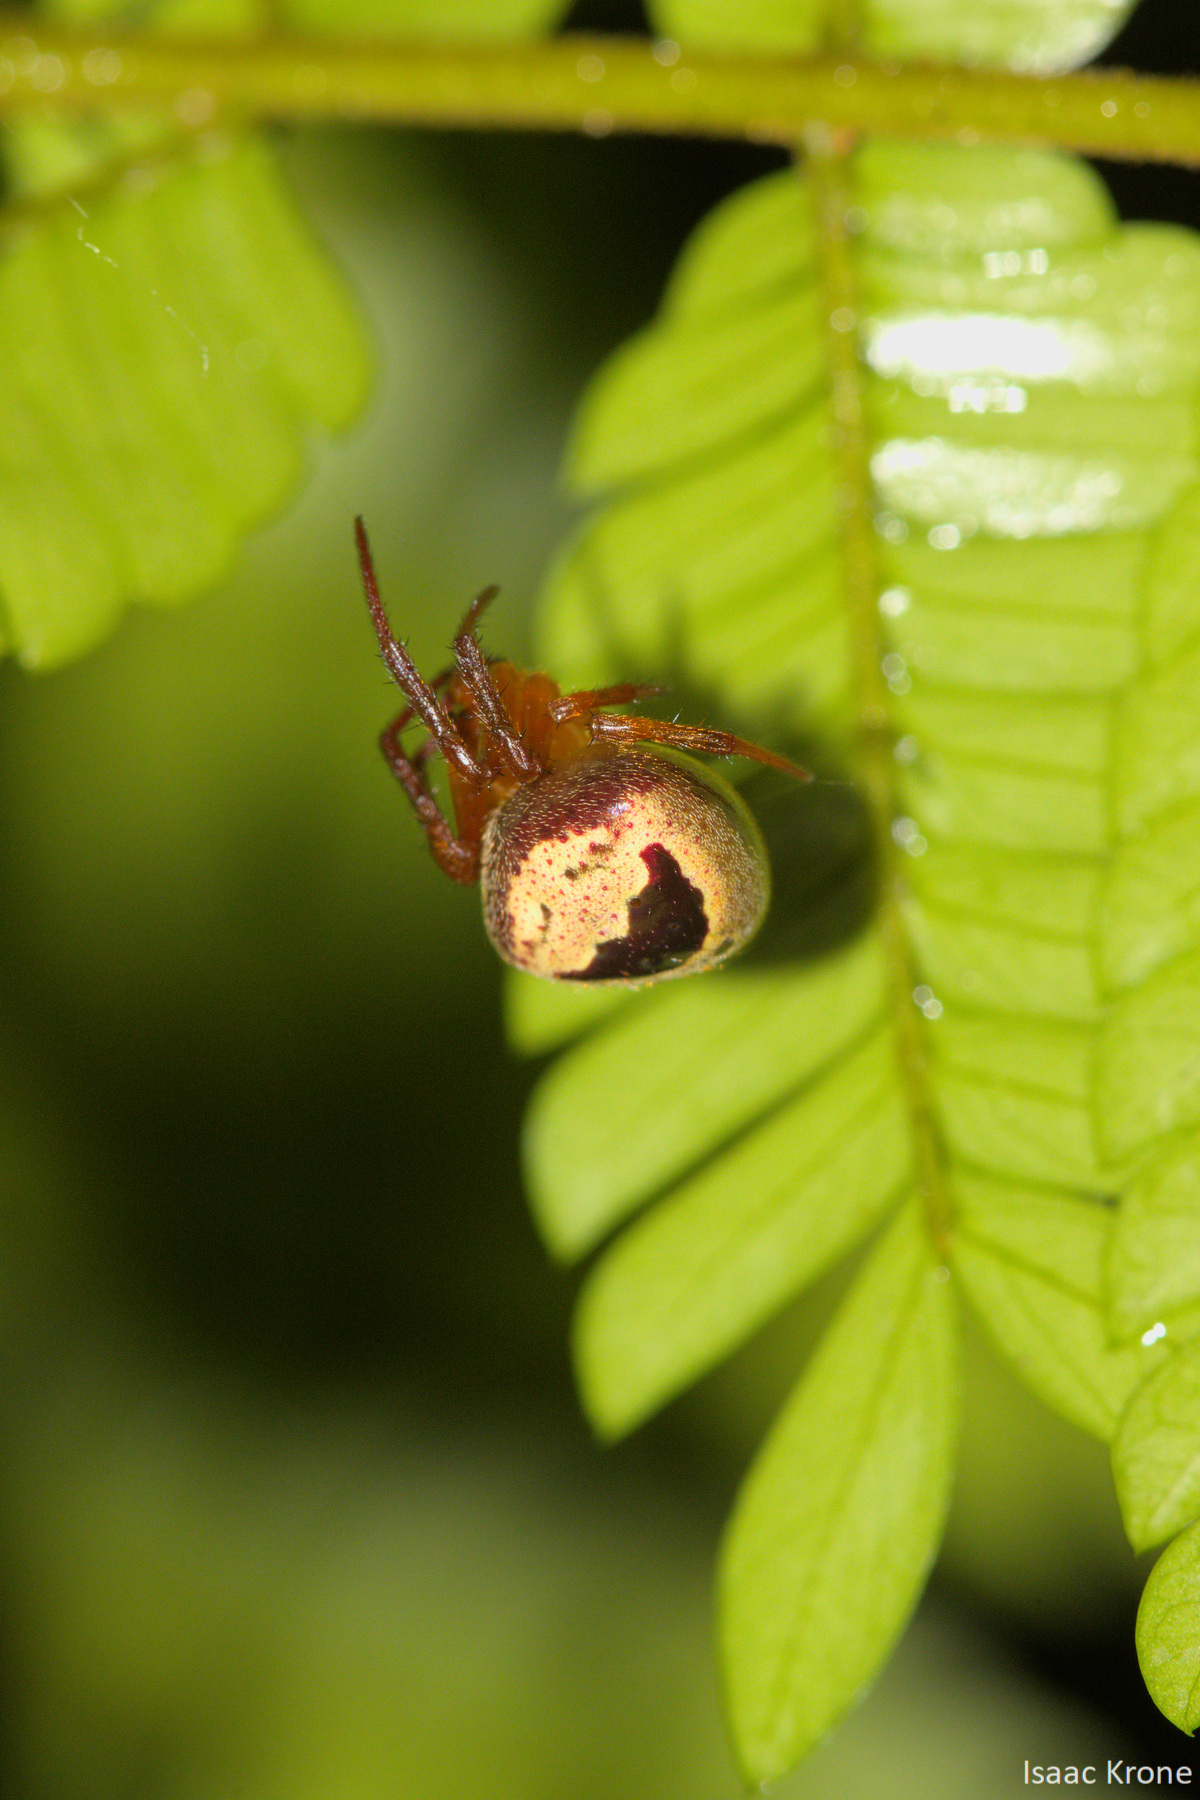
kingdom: Animalia
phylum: Arthropoda
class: Arachnida
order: Araneae
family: Araneidae
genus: Ocrepeira
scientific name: Ocrepeira covillei
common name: Orb weavers
